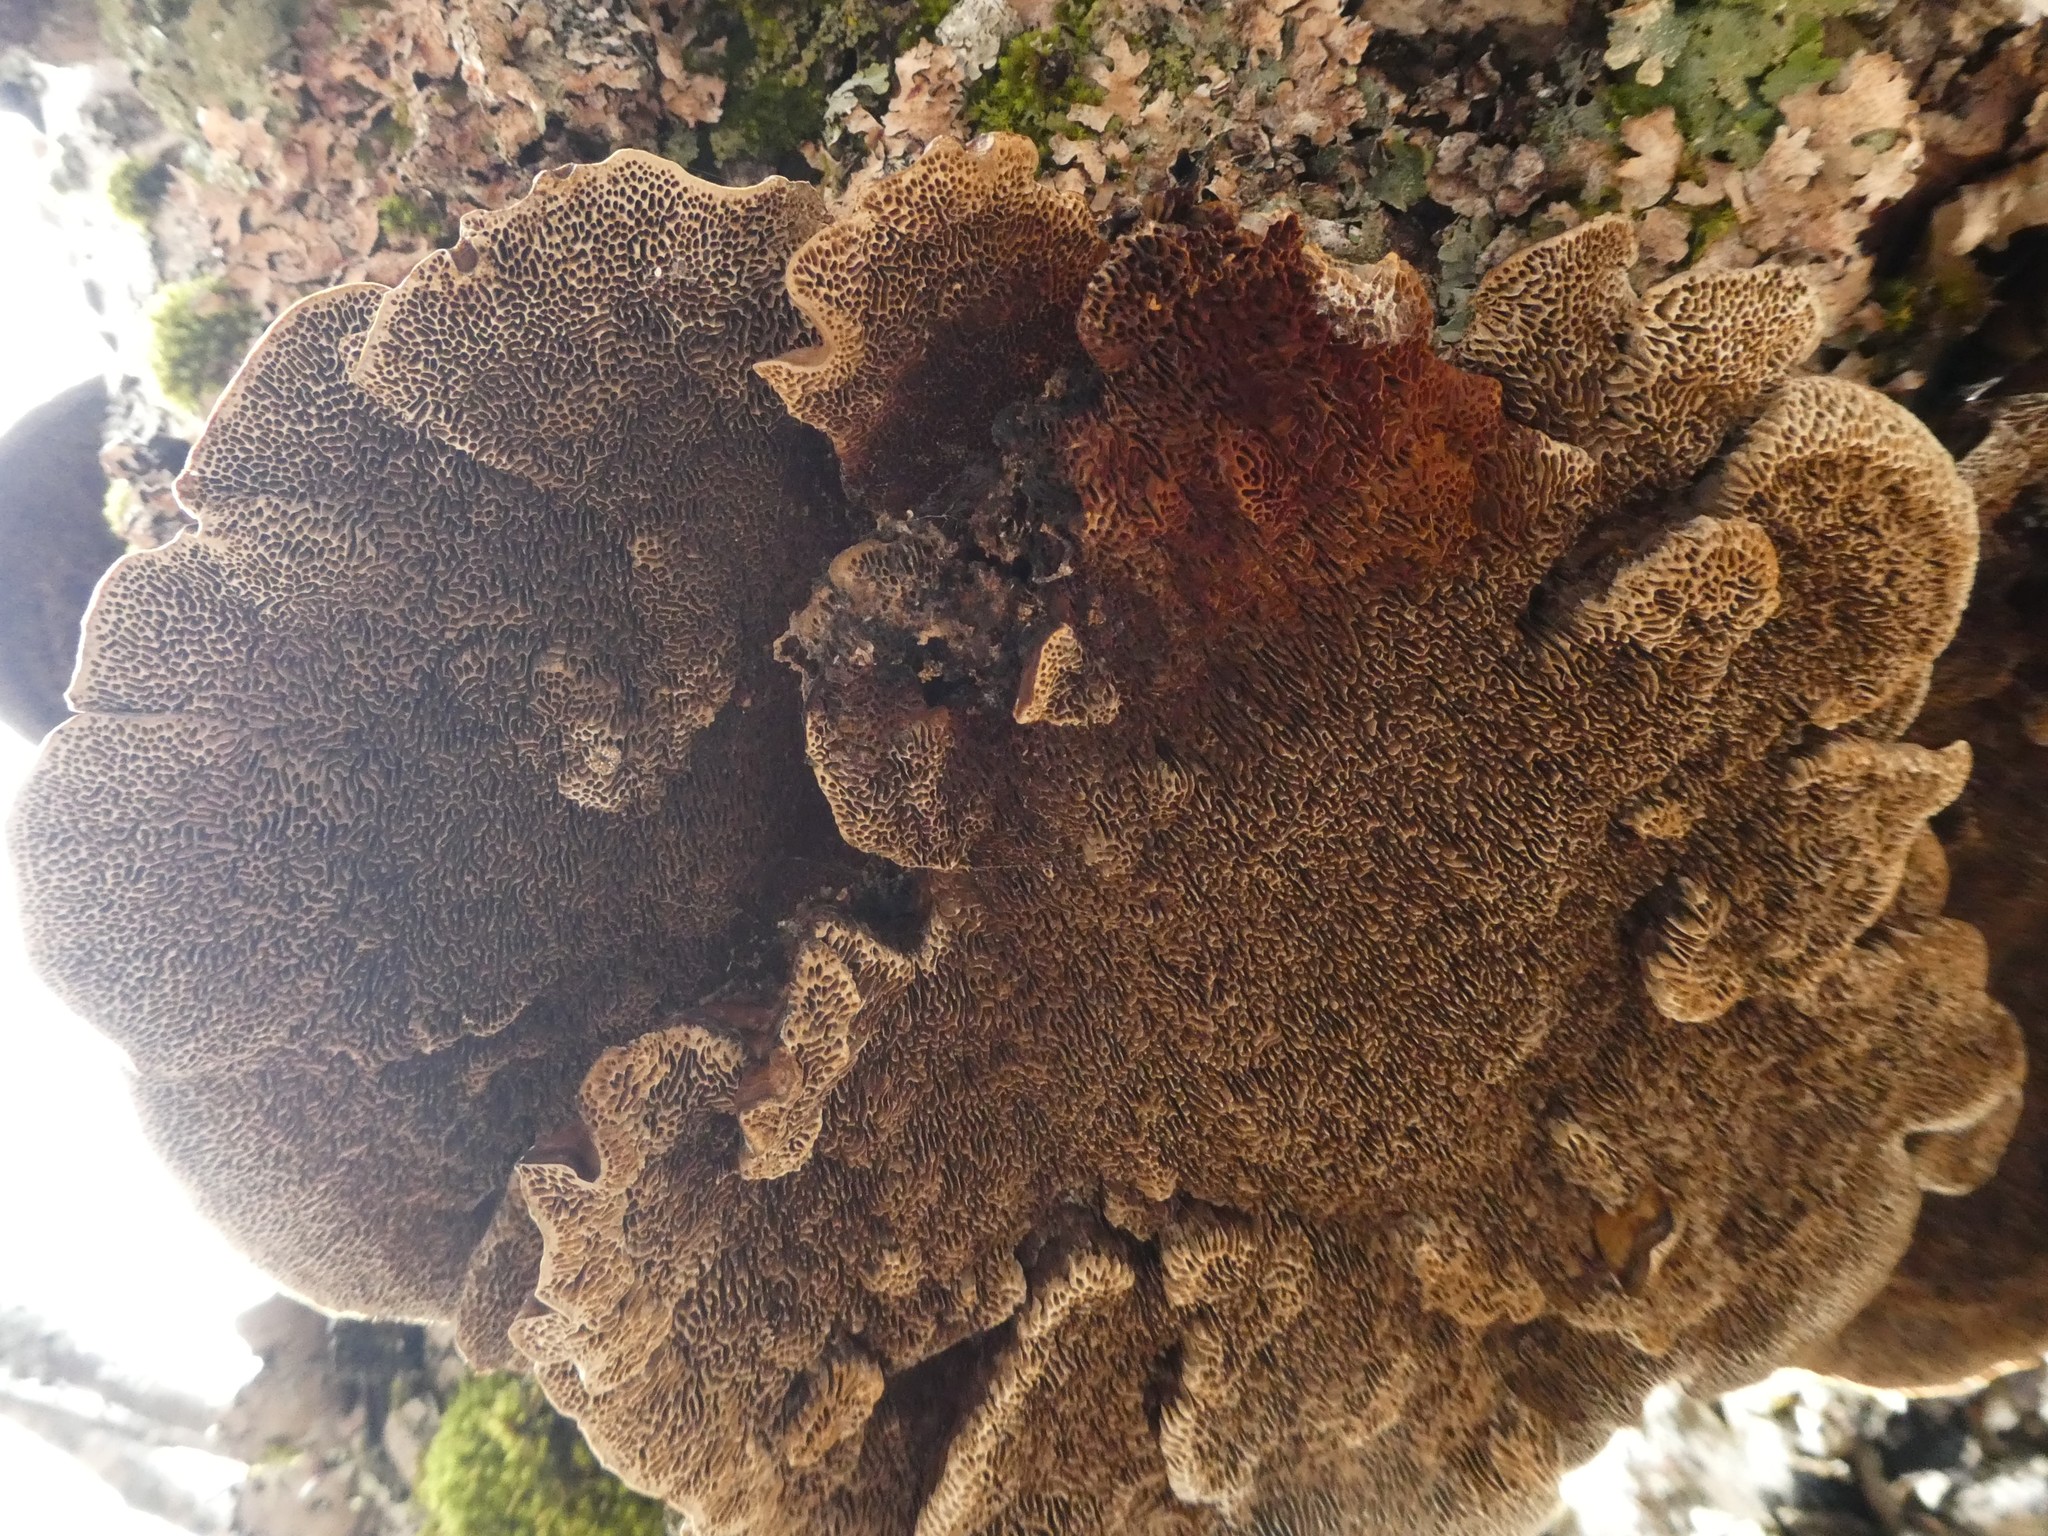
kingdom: Fungi
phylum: Basidiomycota
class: Agaricomycetes
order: Polyporales
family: Polyporaceae
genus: Daedaleopsis
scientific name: Daedaleopsis confragosa
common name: Blushing bracket
